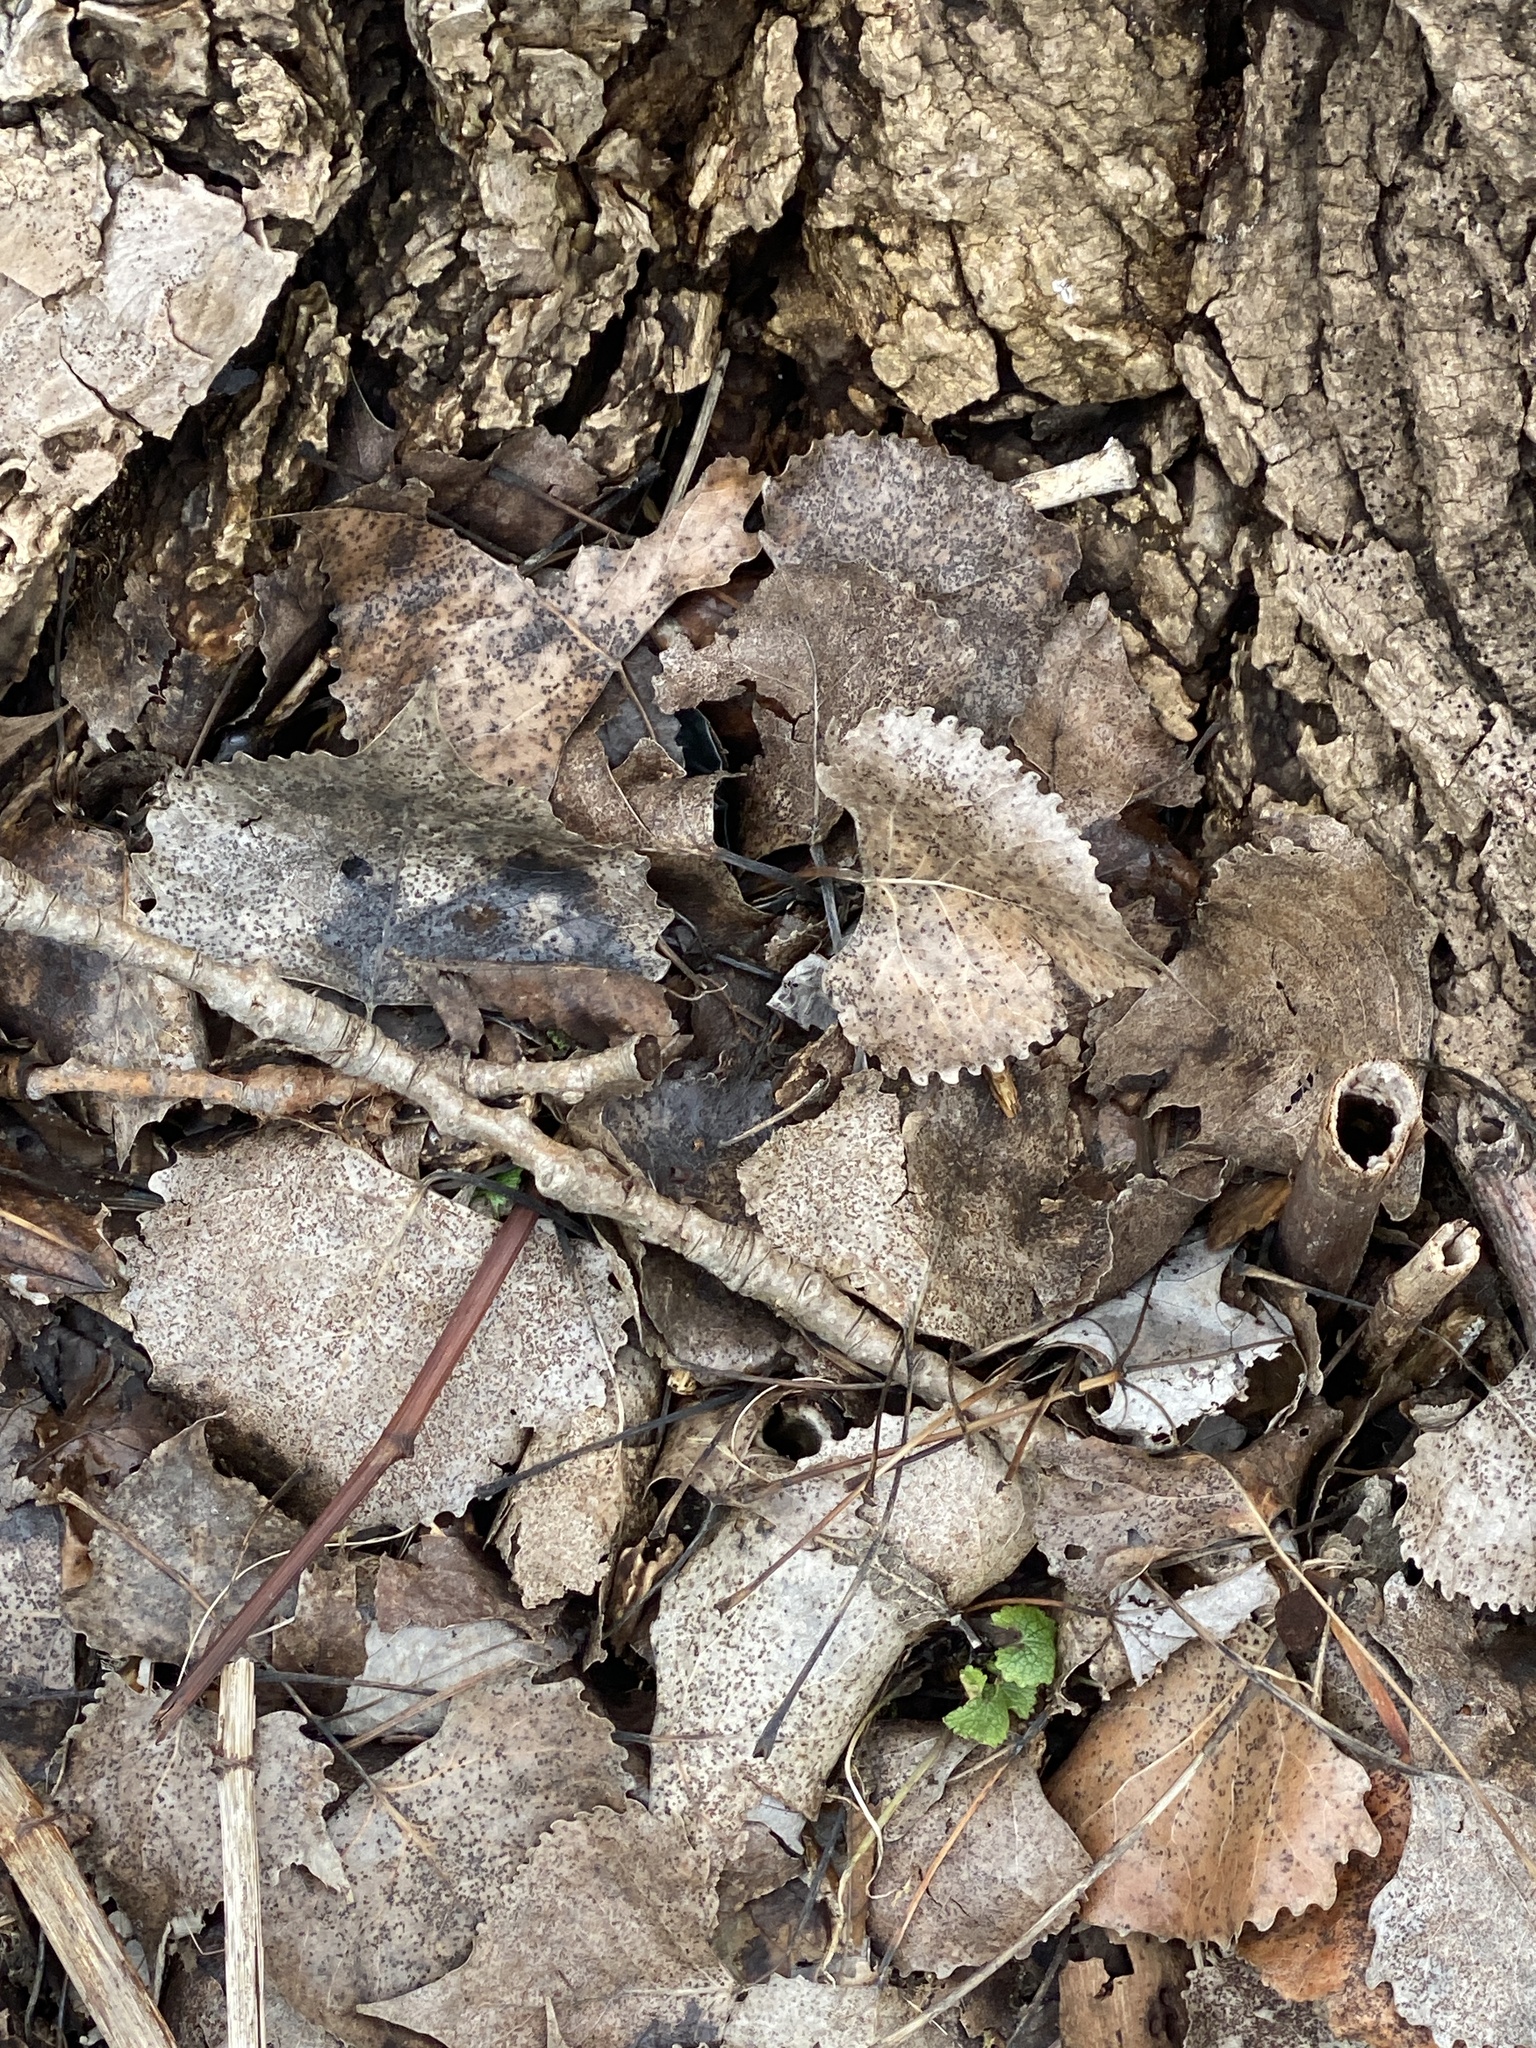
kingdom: Plantae
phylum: Tracheophyta
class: Magnoliopsida
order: Malpighiales
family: Salicaceae
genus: Populus
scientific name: Populus deltoides
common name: Eastern cottonwood
